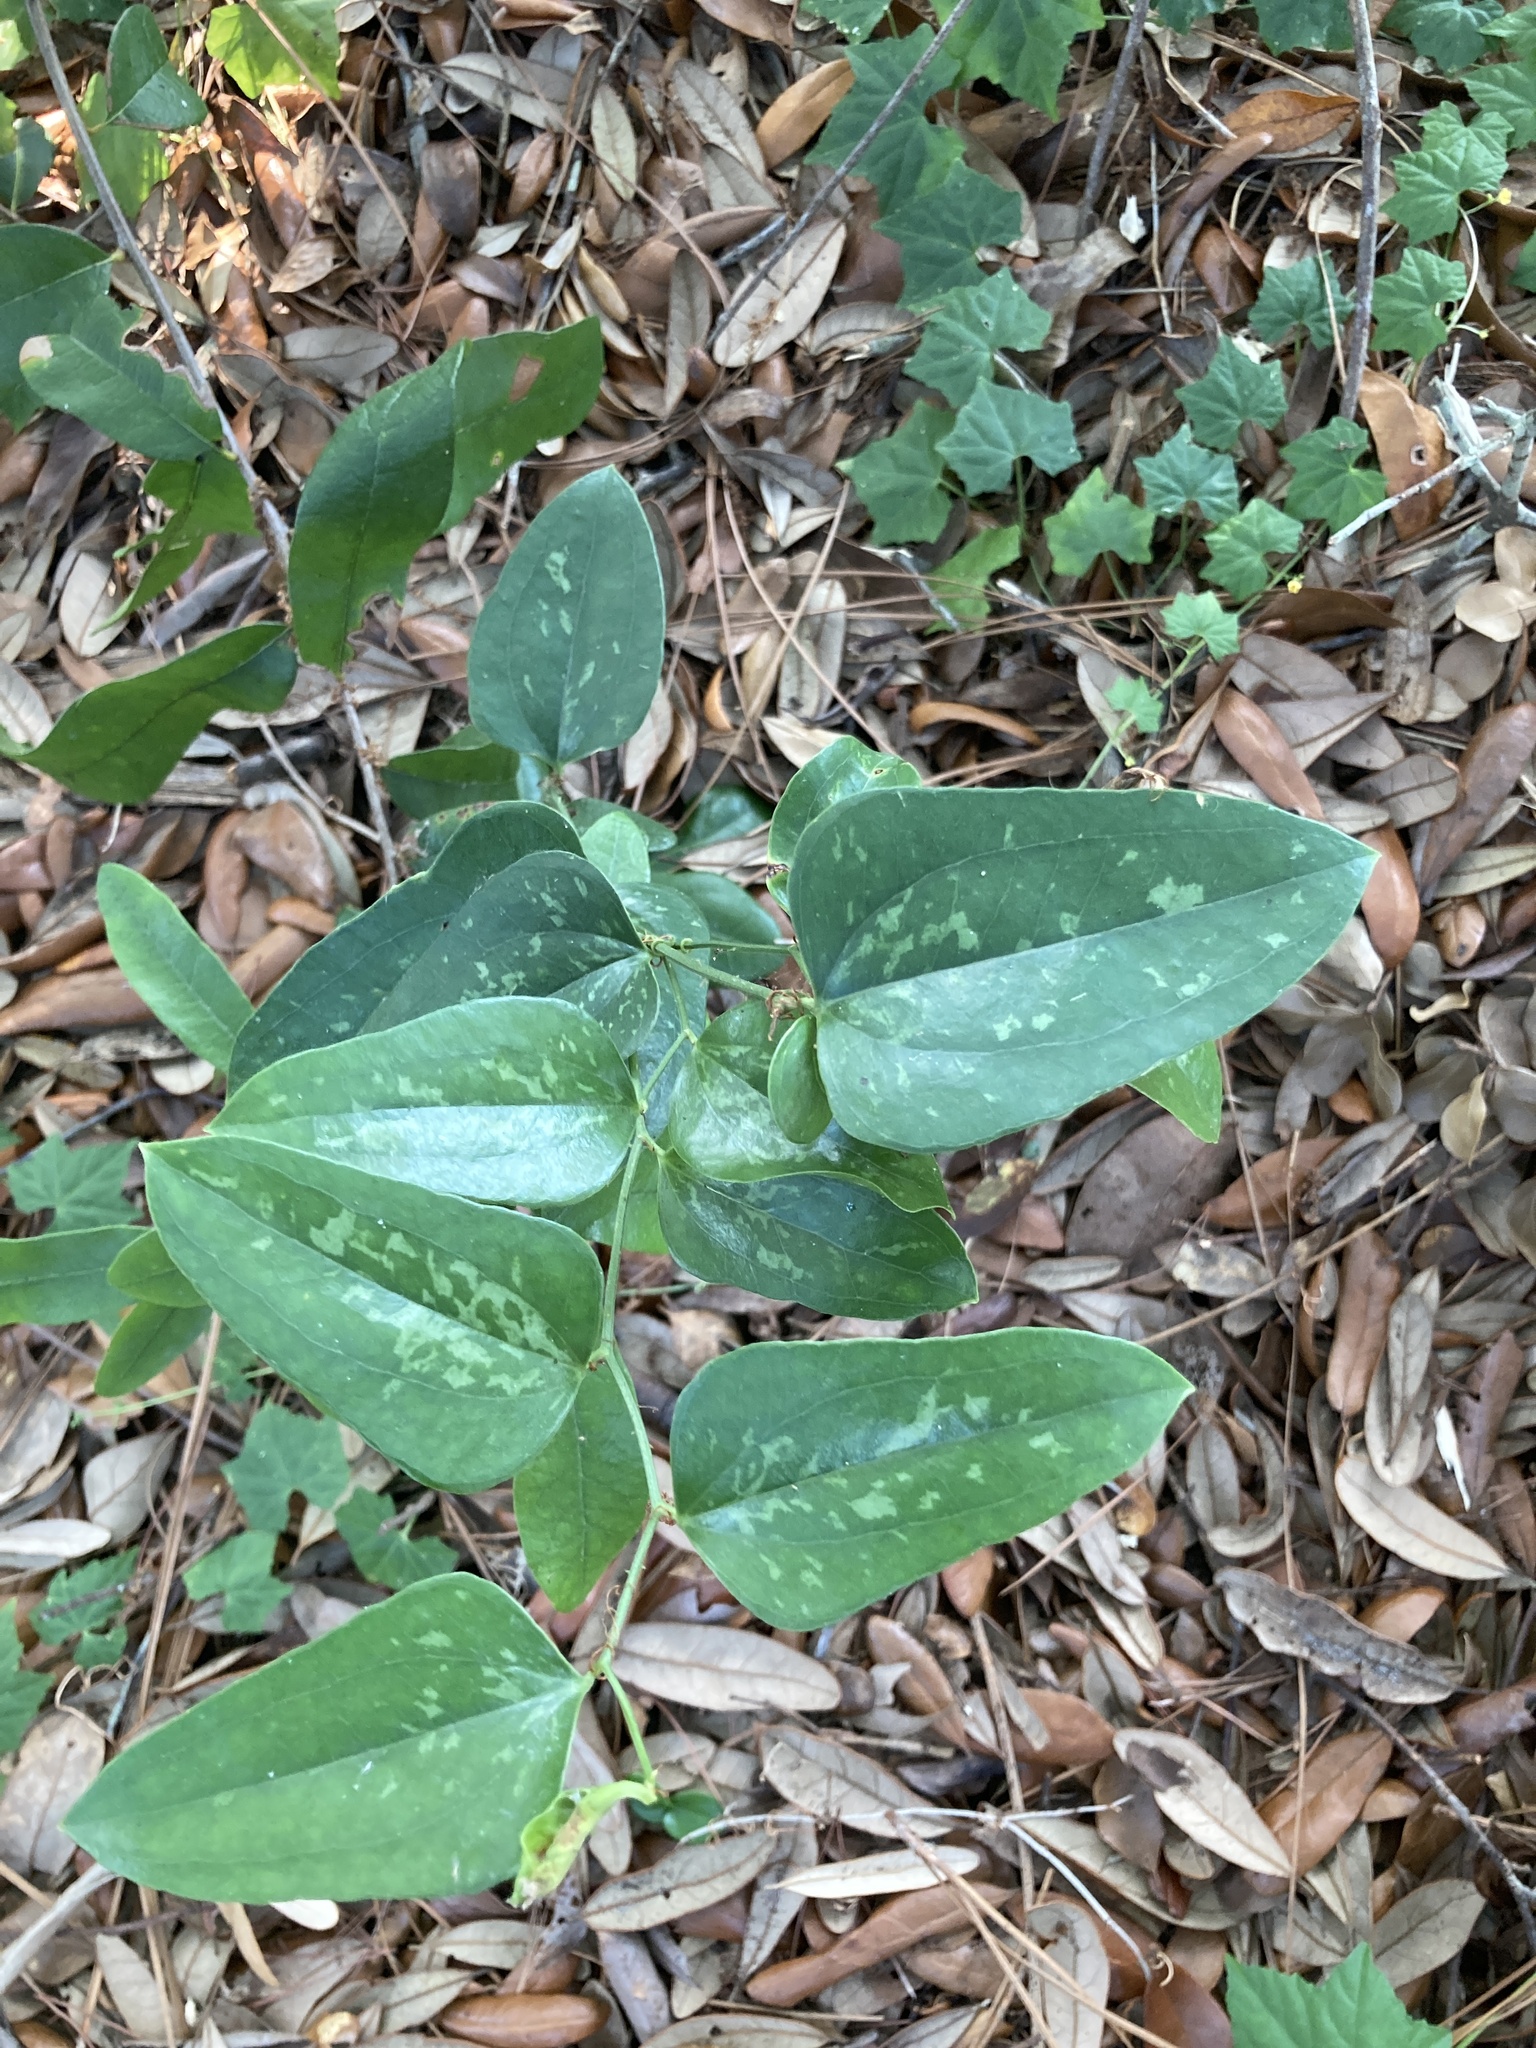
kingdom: Plantae
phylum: Tracheophyta
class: Liliopsida
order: Liliales
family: Smilacaceae
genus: Smilax
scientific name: Smilax glauca
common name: Cat greenbrier
